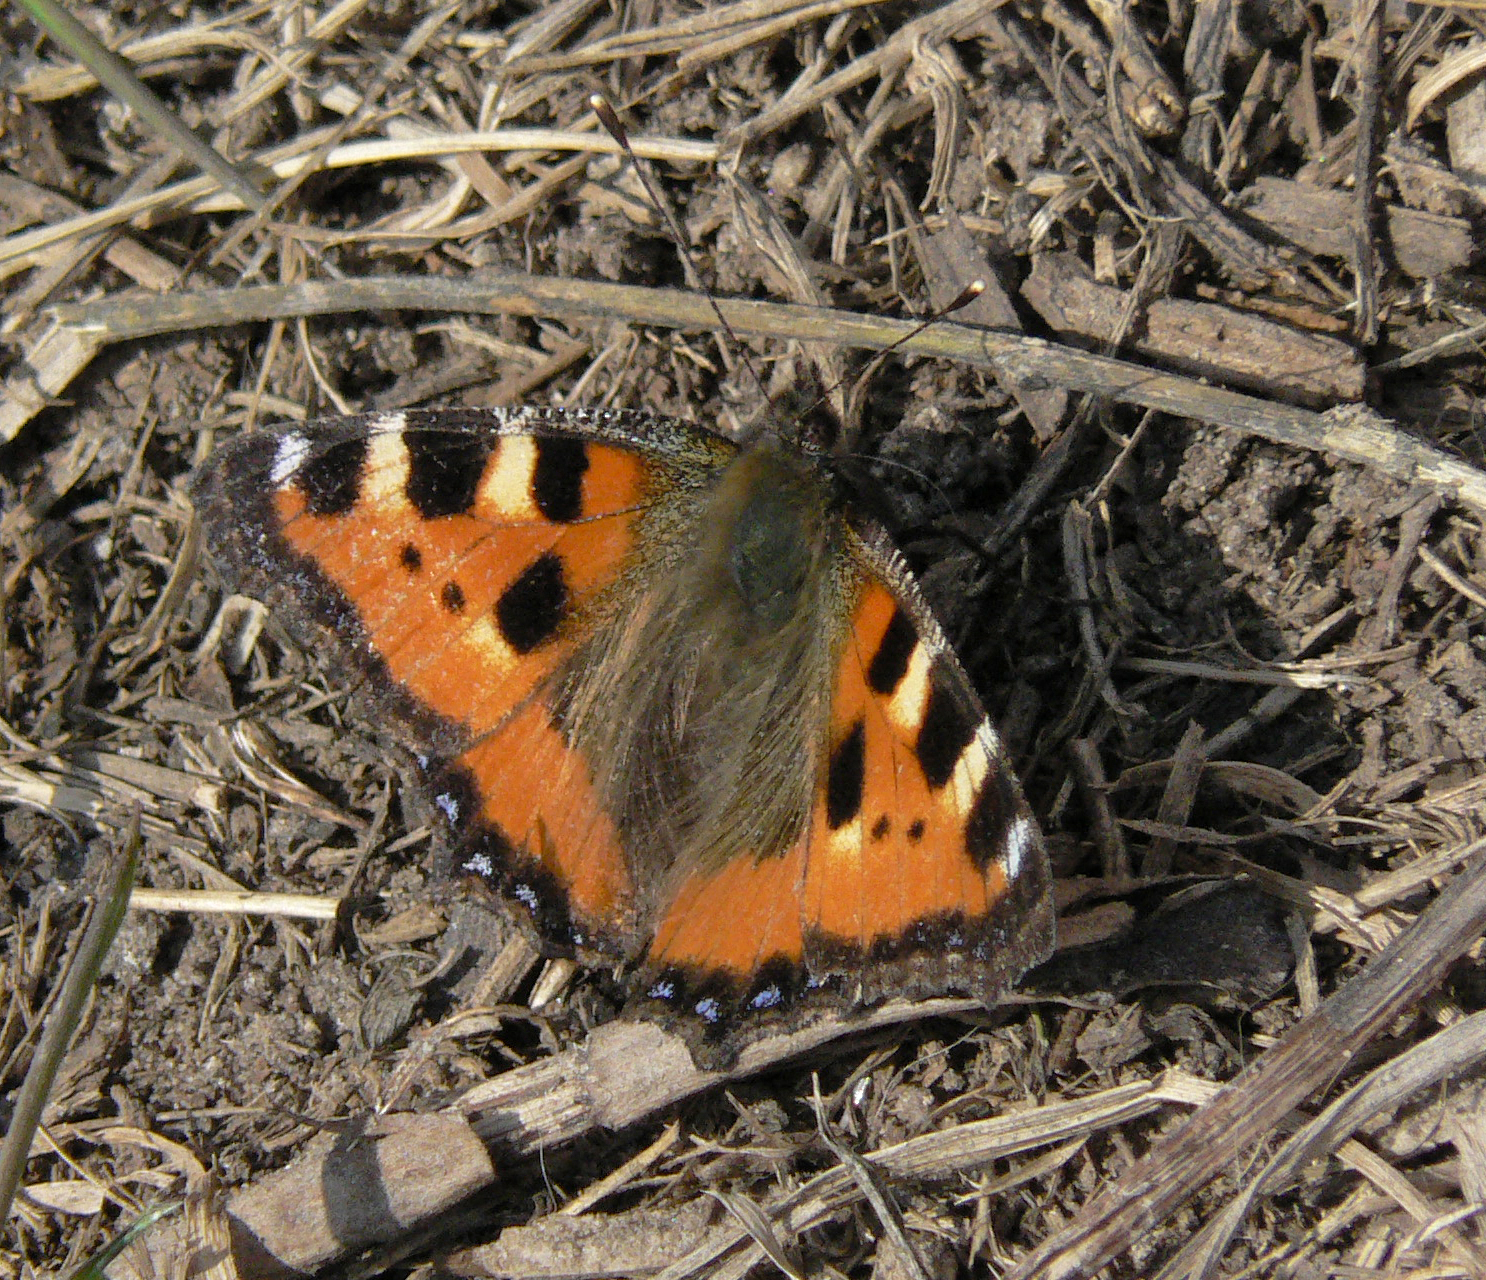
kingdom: Animalia
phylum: Arthropoda
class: Insecta
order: Lepidoptera
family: Nymphalidae
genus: Aglais
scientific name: Aglais urticae
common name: Small tortoiseshell
